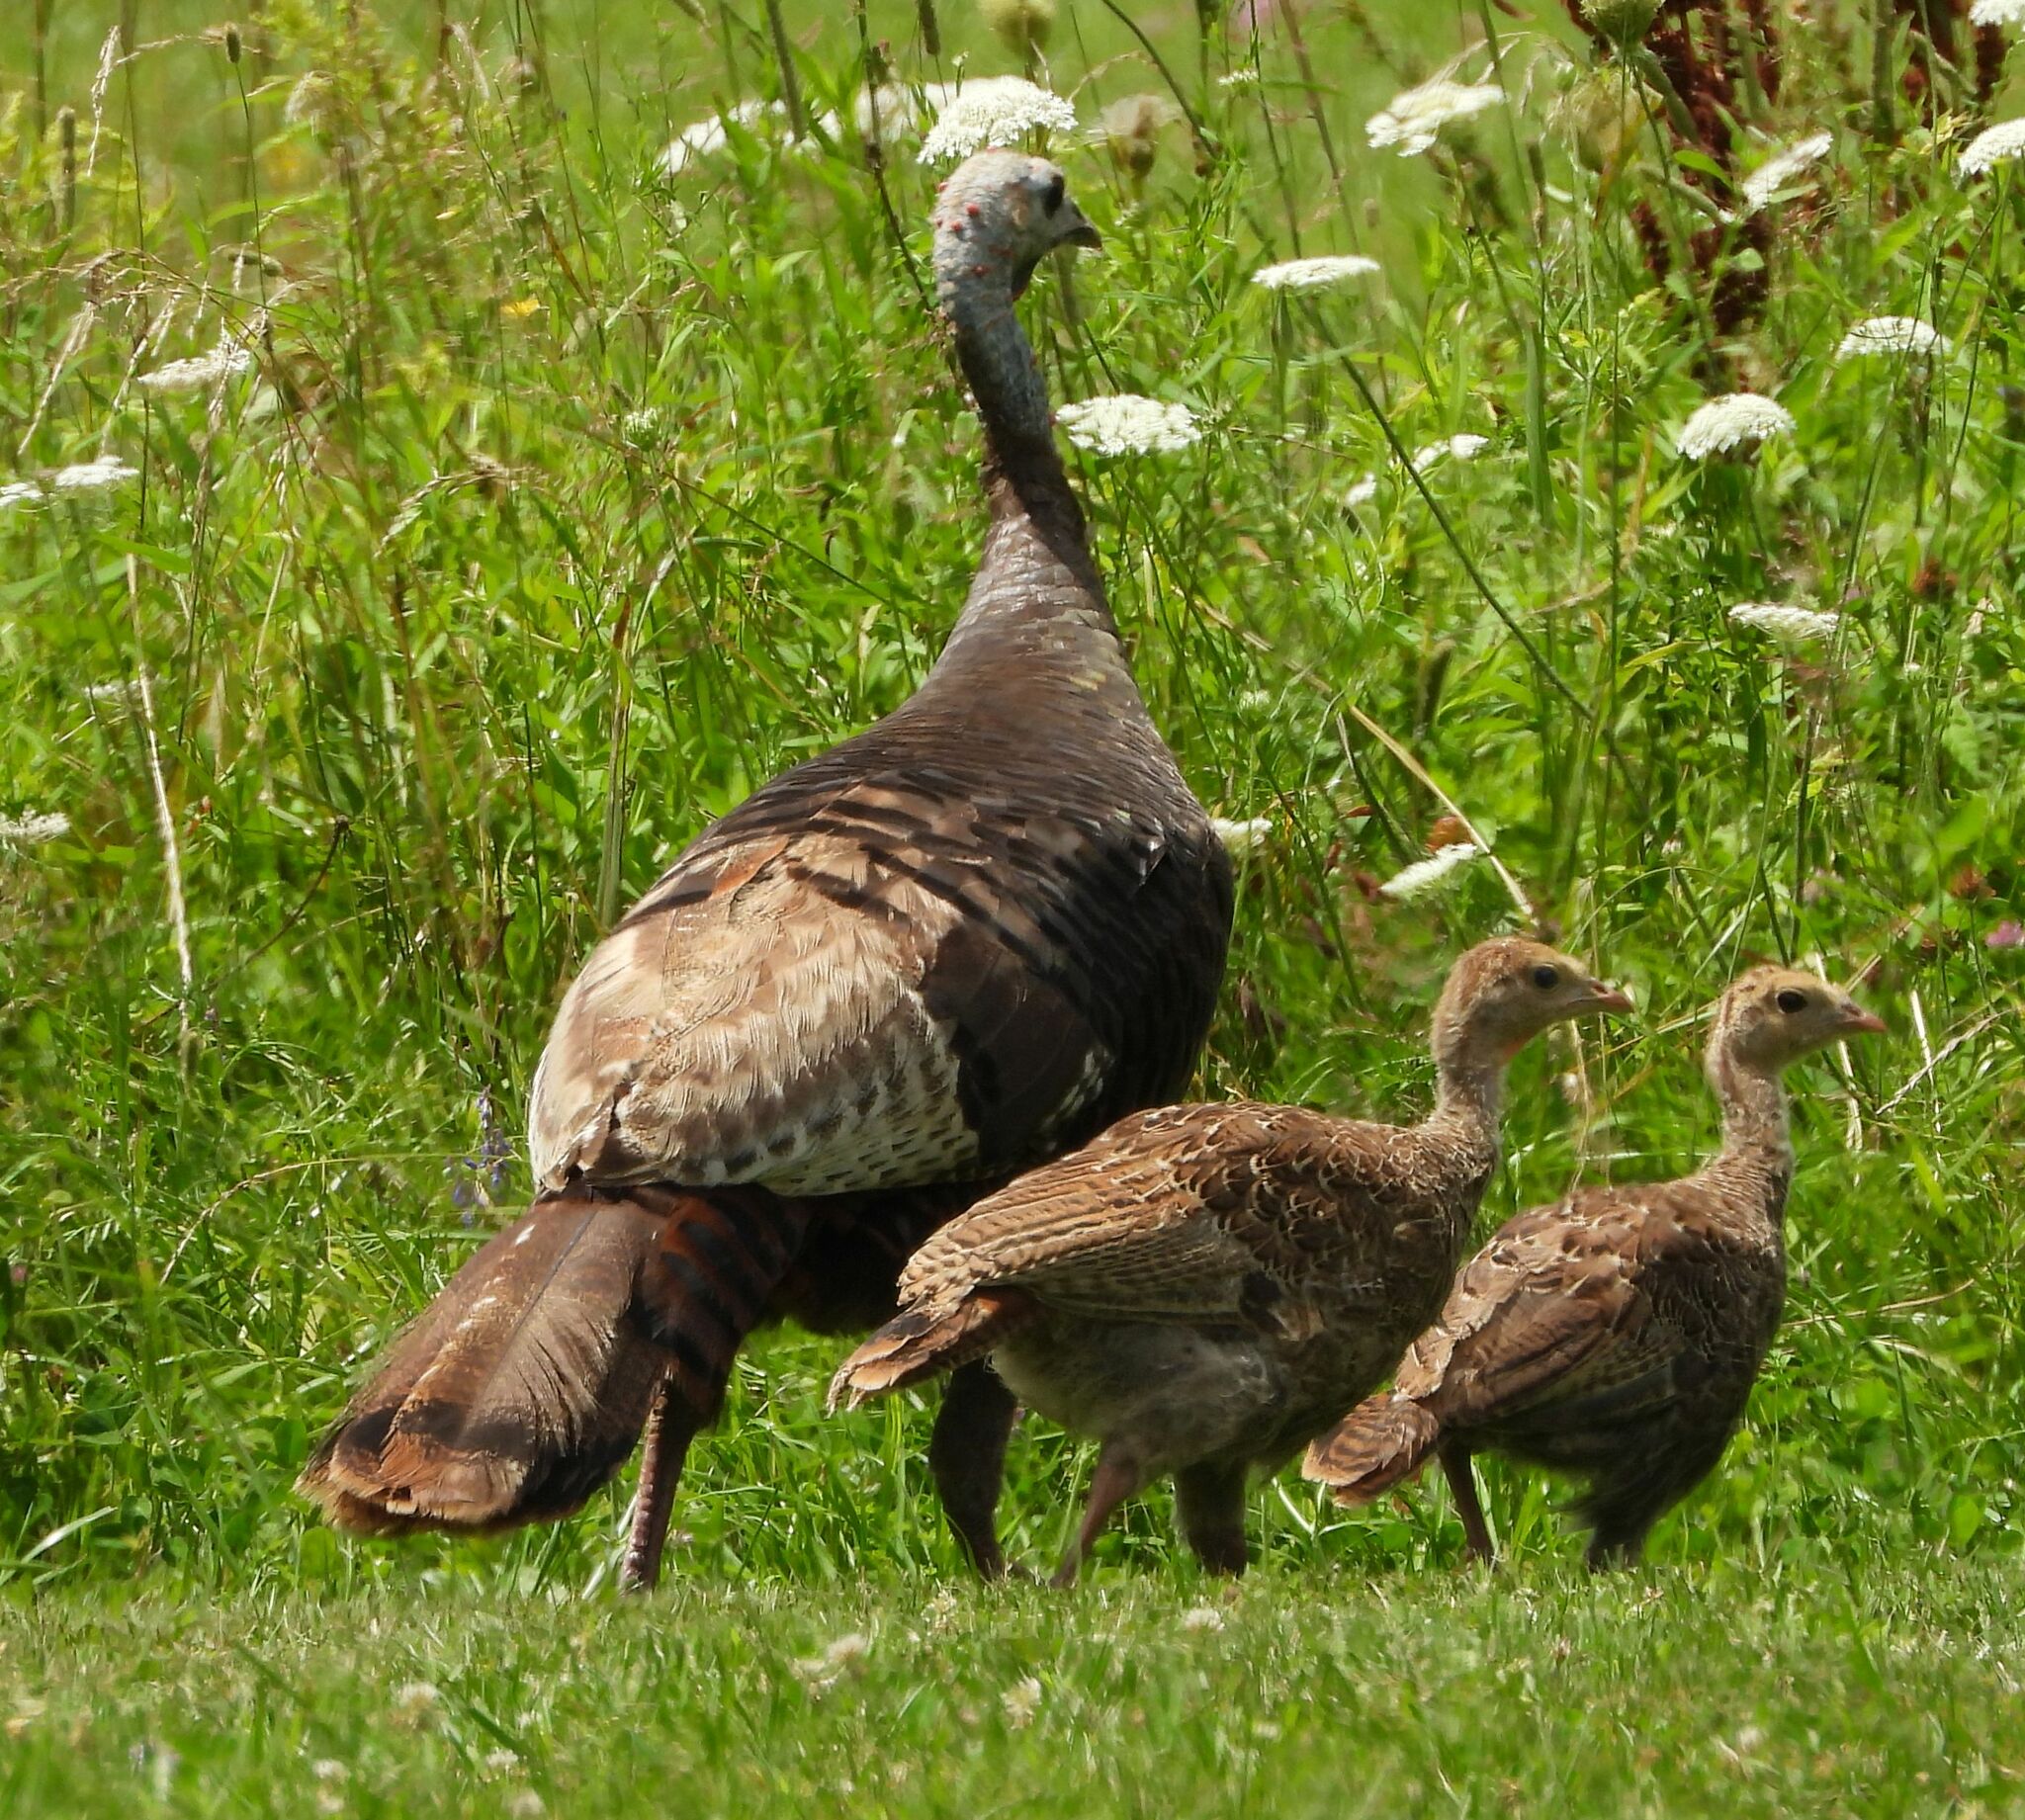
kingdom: Animalia
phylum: Chordata
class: Aves
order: Galliformes
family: Phasianidae
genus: Meleagris
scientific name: Meleagris gallopavo
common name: Wild turkey
